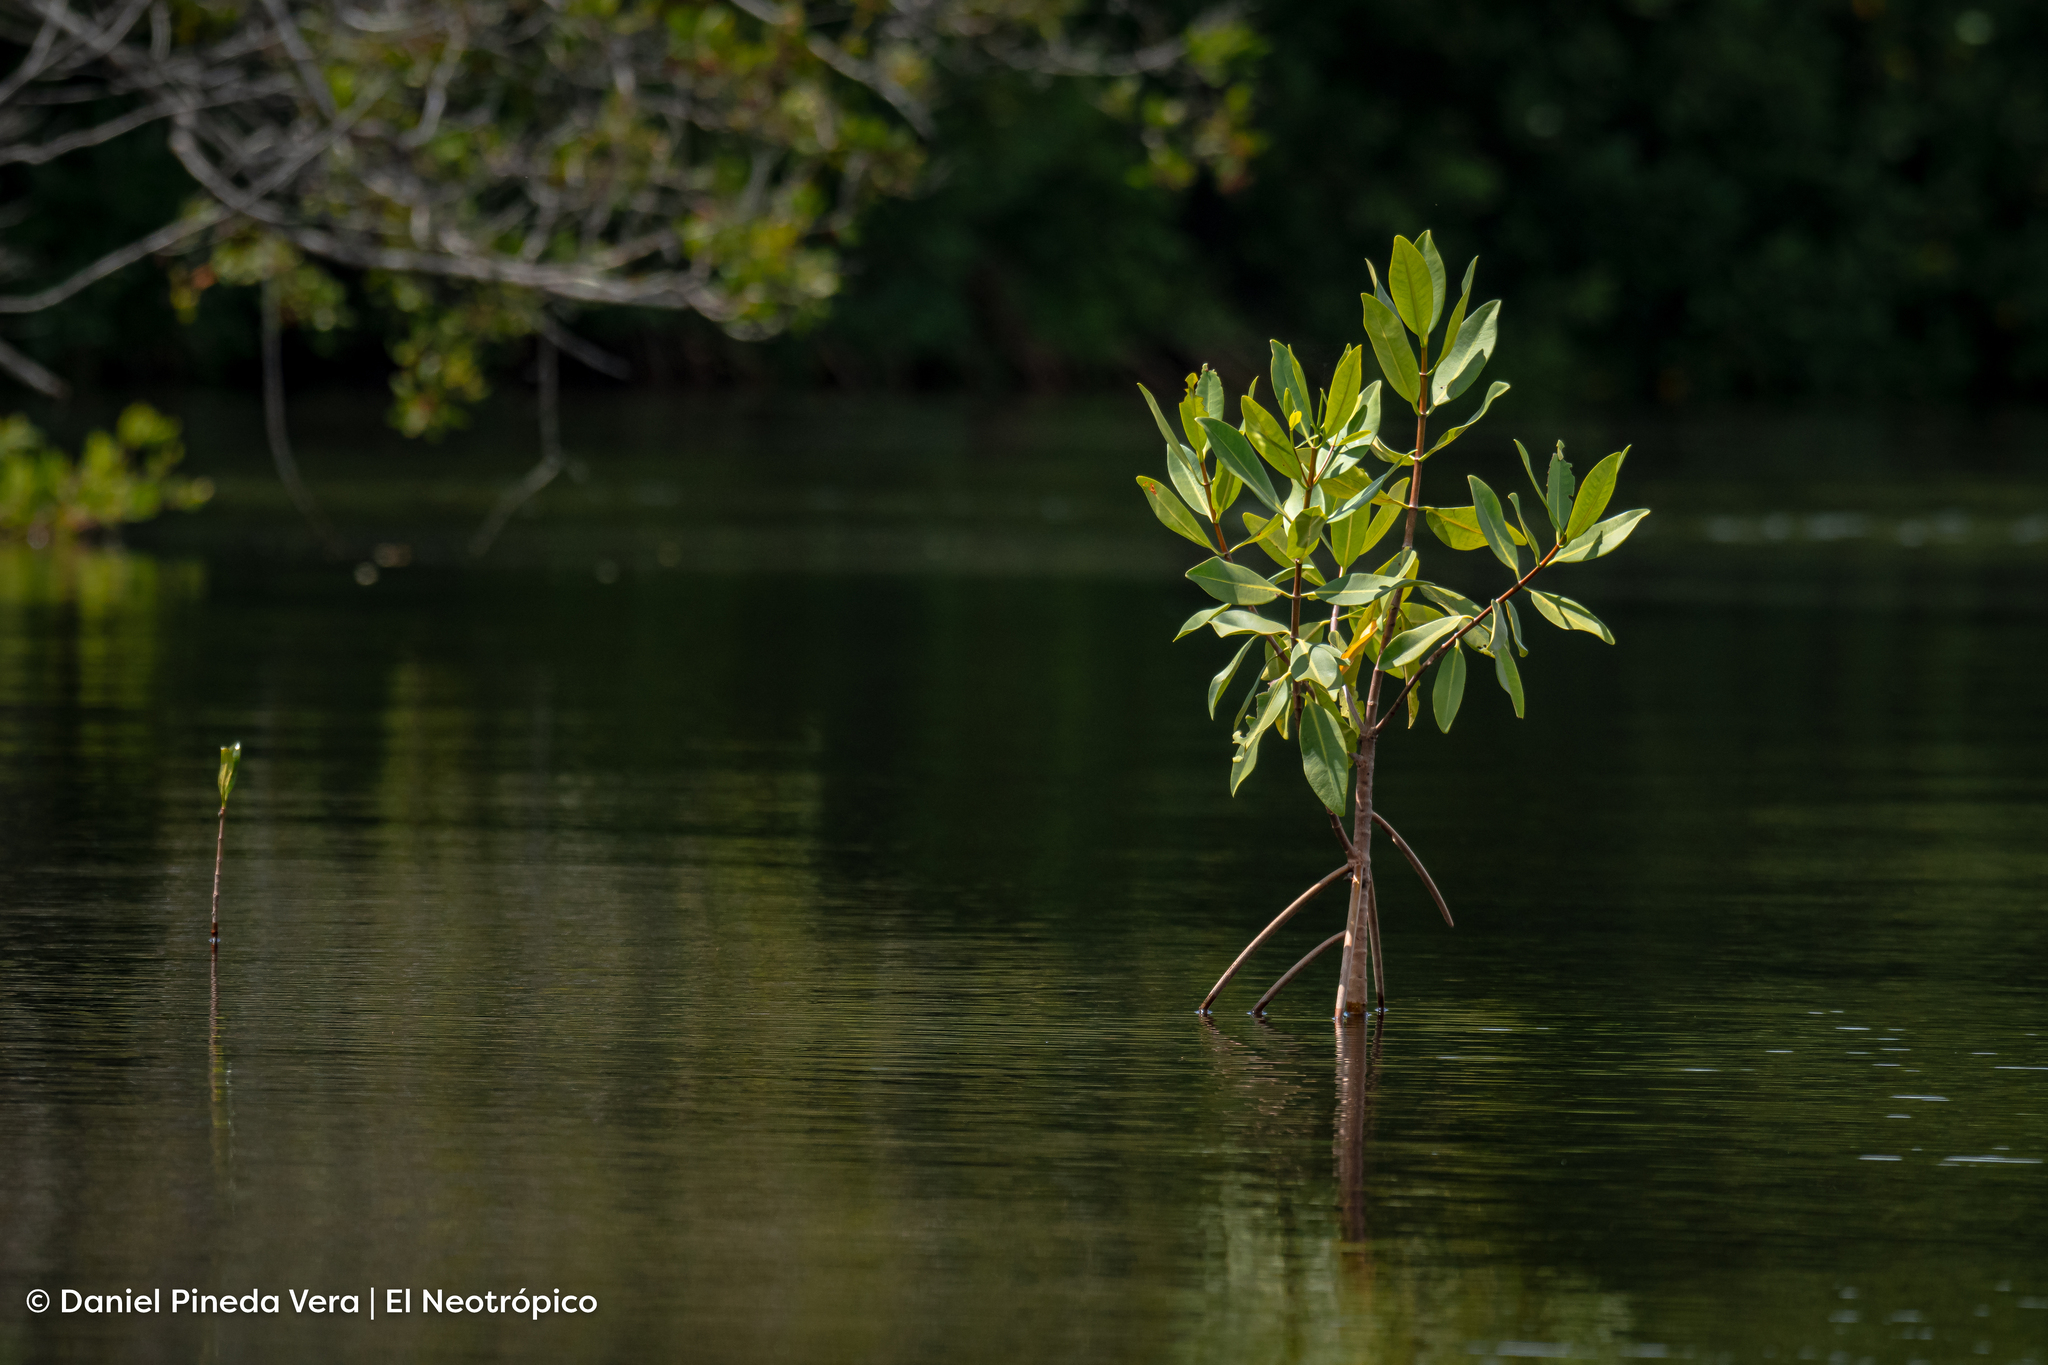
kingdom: Plantae
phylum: Tracheophyta
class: Magnoliopsida
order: Malpighiales
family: Rhizophoraceae
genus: Rhizophora
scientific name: Rhizophora mangle
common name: Red mangrove
